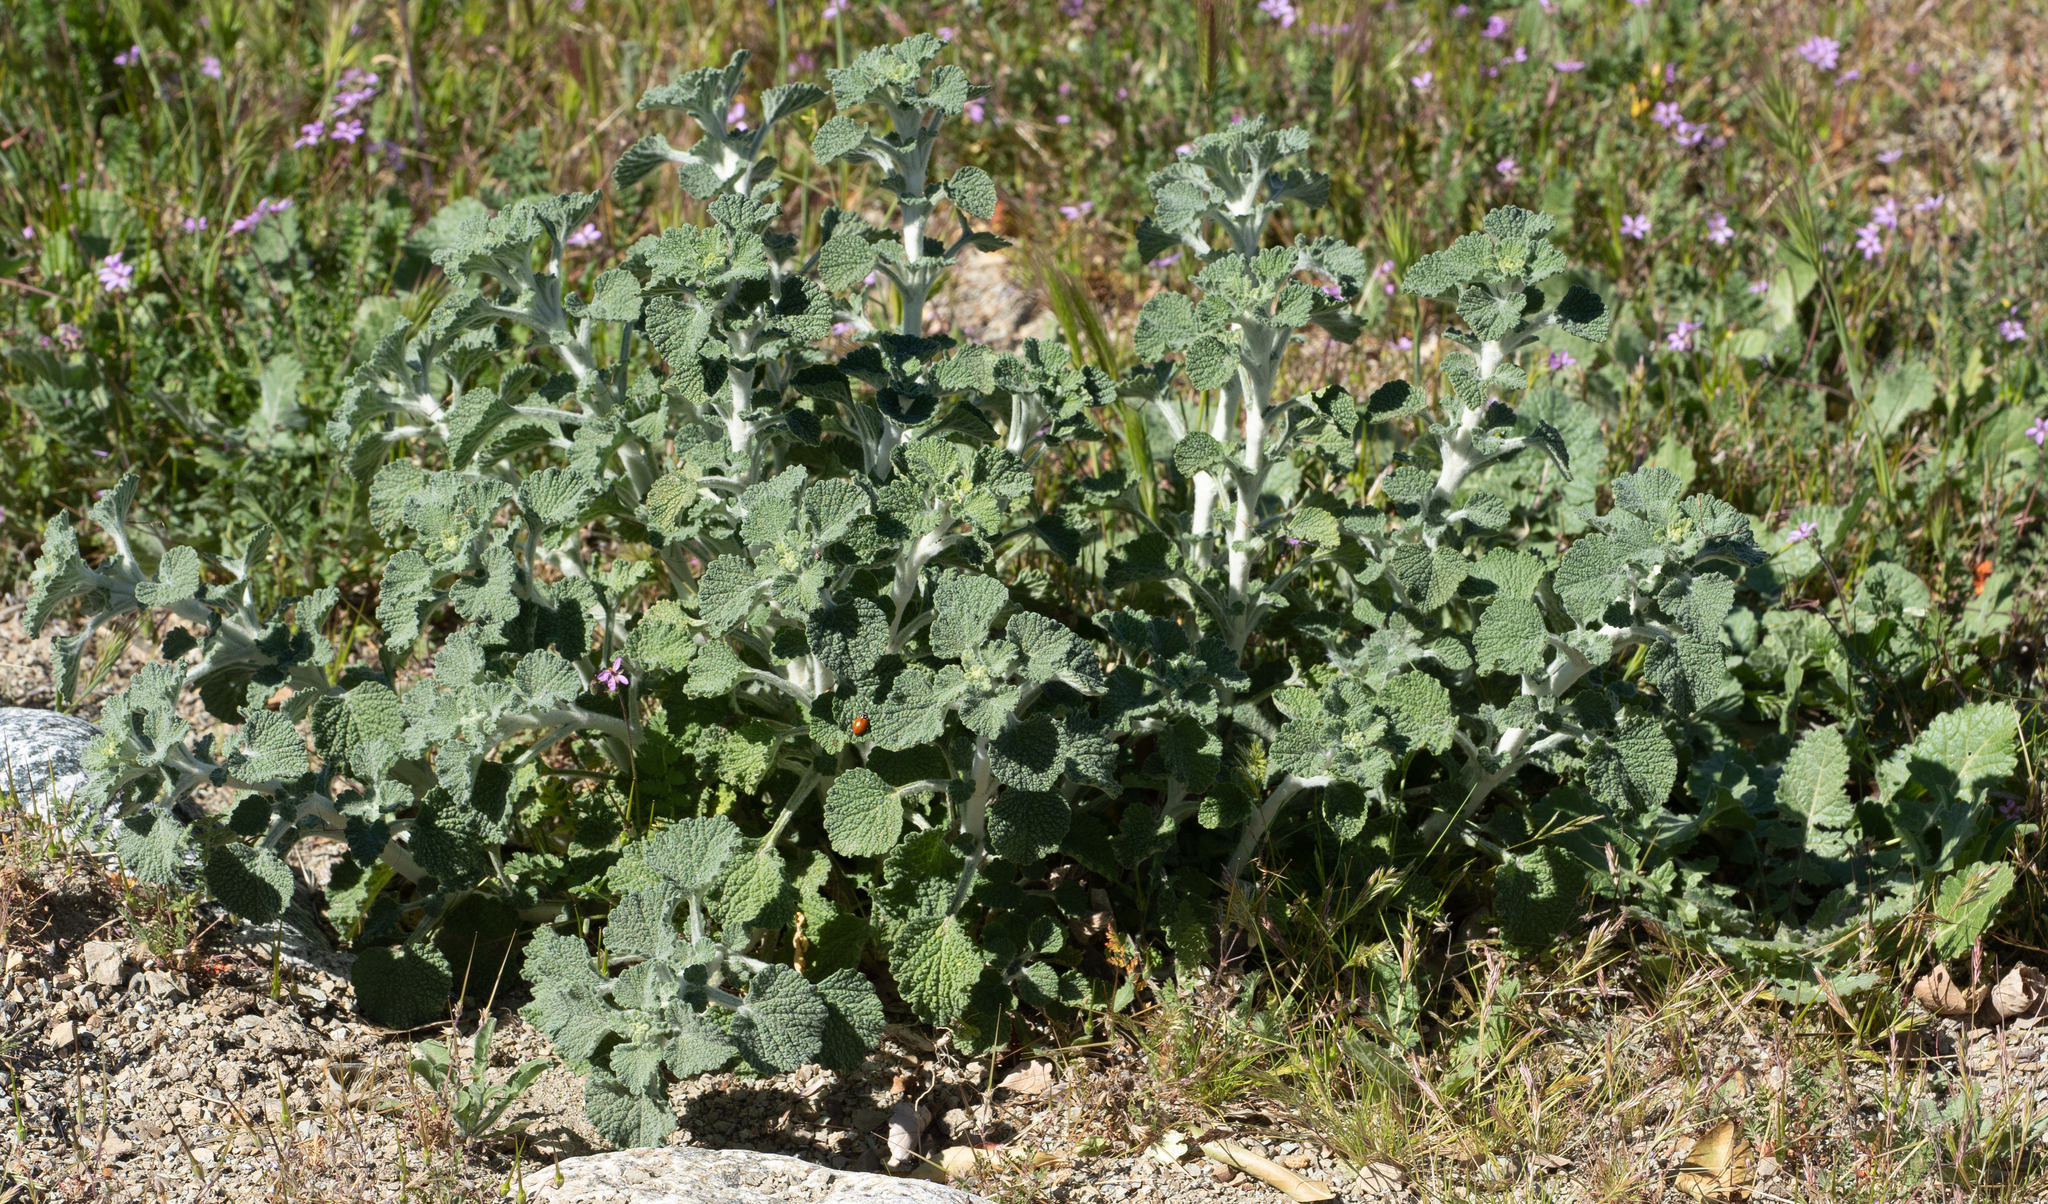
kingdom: Plantae
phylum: Tracheophyta
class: Magnoliopsida
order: Lamiales
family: Lamiaceae
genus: Marrubium
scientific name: Marrubium vulgare
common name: Horehound
